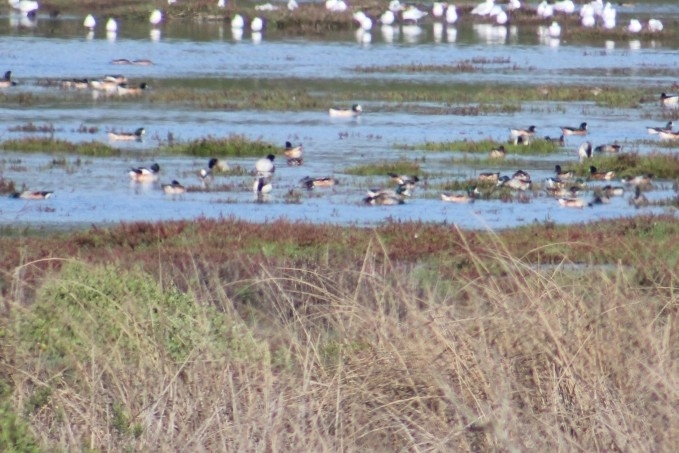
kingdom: Animalia
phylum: Chordata
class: Aves
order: Anseriformes
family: Anatidae
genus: Mareca
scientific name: Mareca sibilatrix
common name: Chiloe wigeon
